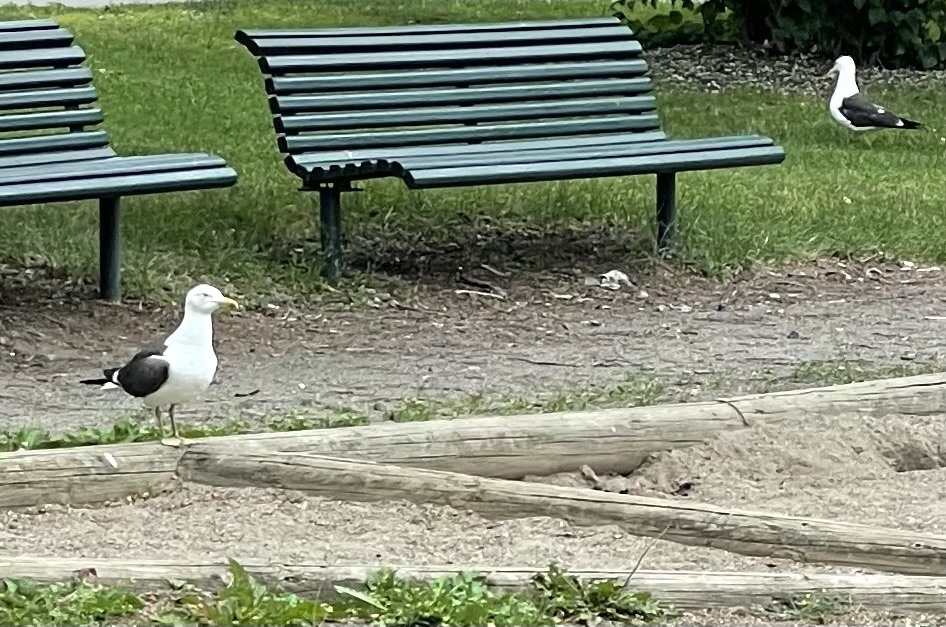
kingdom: Animalia
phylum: Chordata
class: Aves
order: Charadriiformes
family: Laridae
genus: Larus
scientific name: Larus fuscus
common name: Lesser black-backed gull
